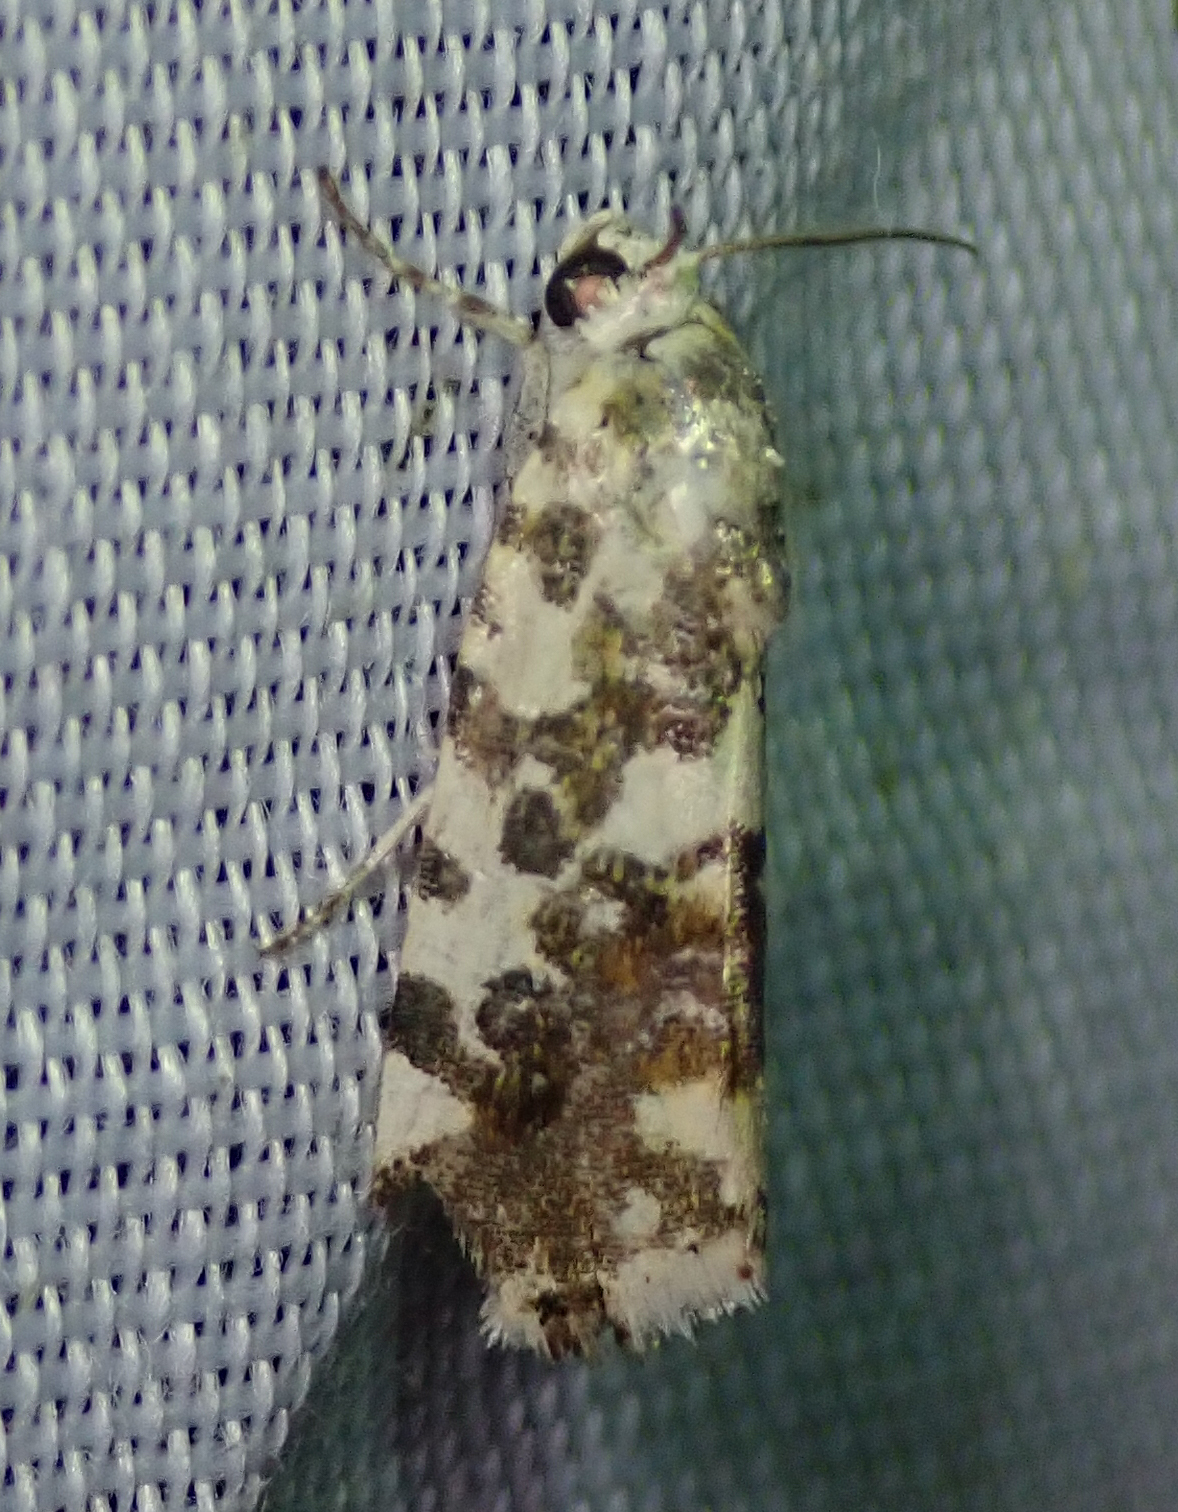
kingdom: Animalia
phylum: Arthropoda
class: Insecta
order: Lepidoptera
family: Noctuidae
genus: Acontia
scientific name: Acontia zelleri
